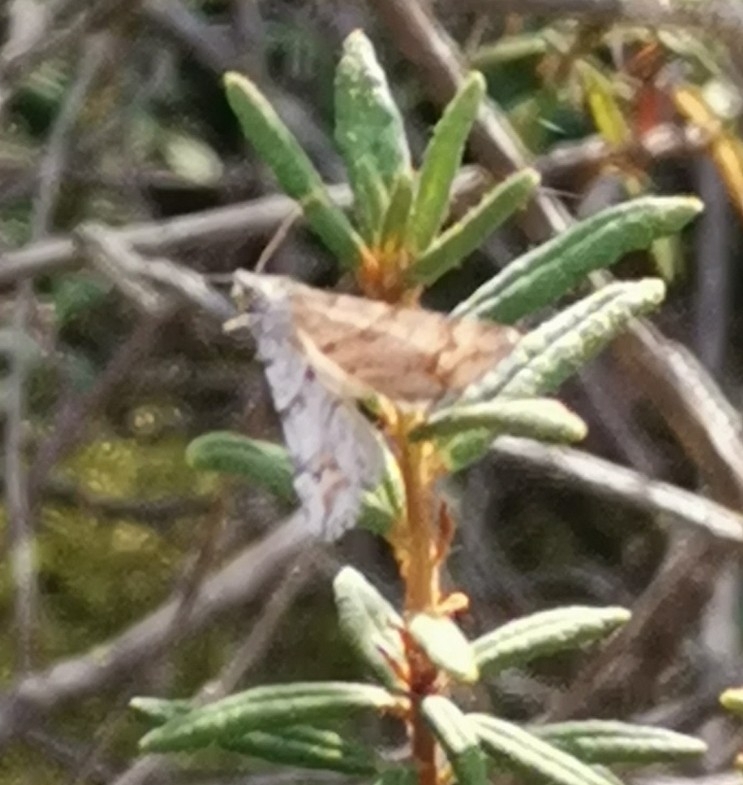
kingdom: Animalia
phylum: Arthropoda
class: Insecta
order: Lepidoptera
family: Geometridae
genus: Carsia
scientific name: Carsia sororiata
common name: Manchester treble-bar
